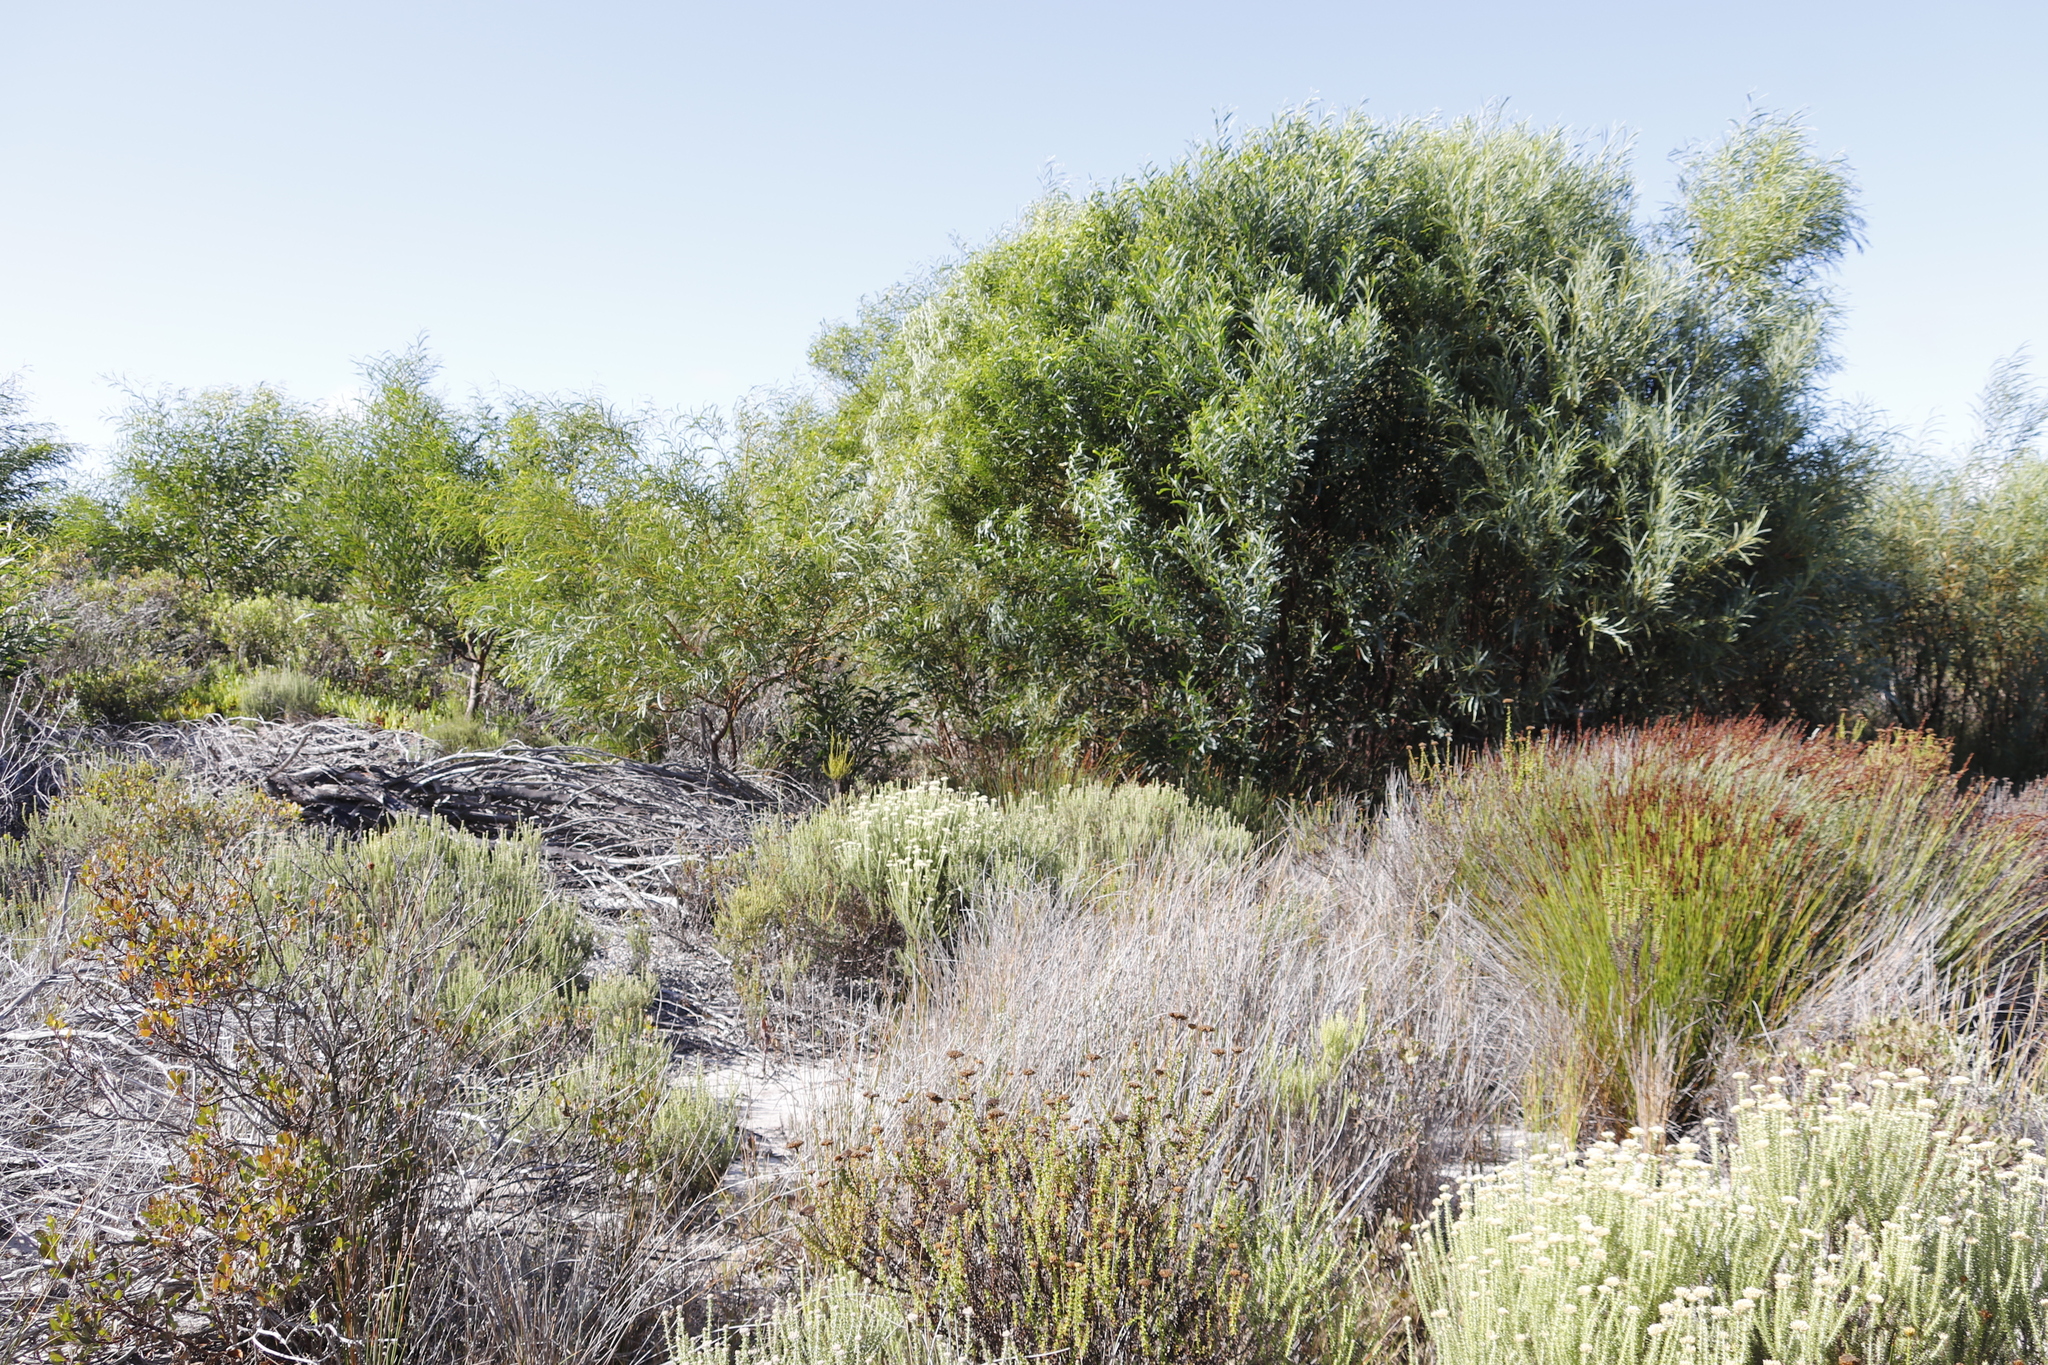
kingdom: Plantae
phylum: Tracheophyta
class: Magnoliopsida
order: Fabales
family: Fabaceae
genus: Acacia
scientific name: Acacia saligna
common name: Orange wattle
